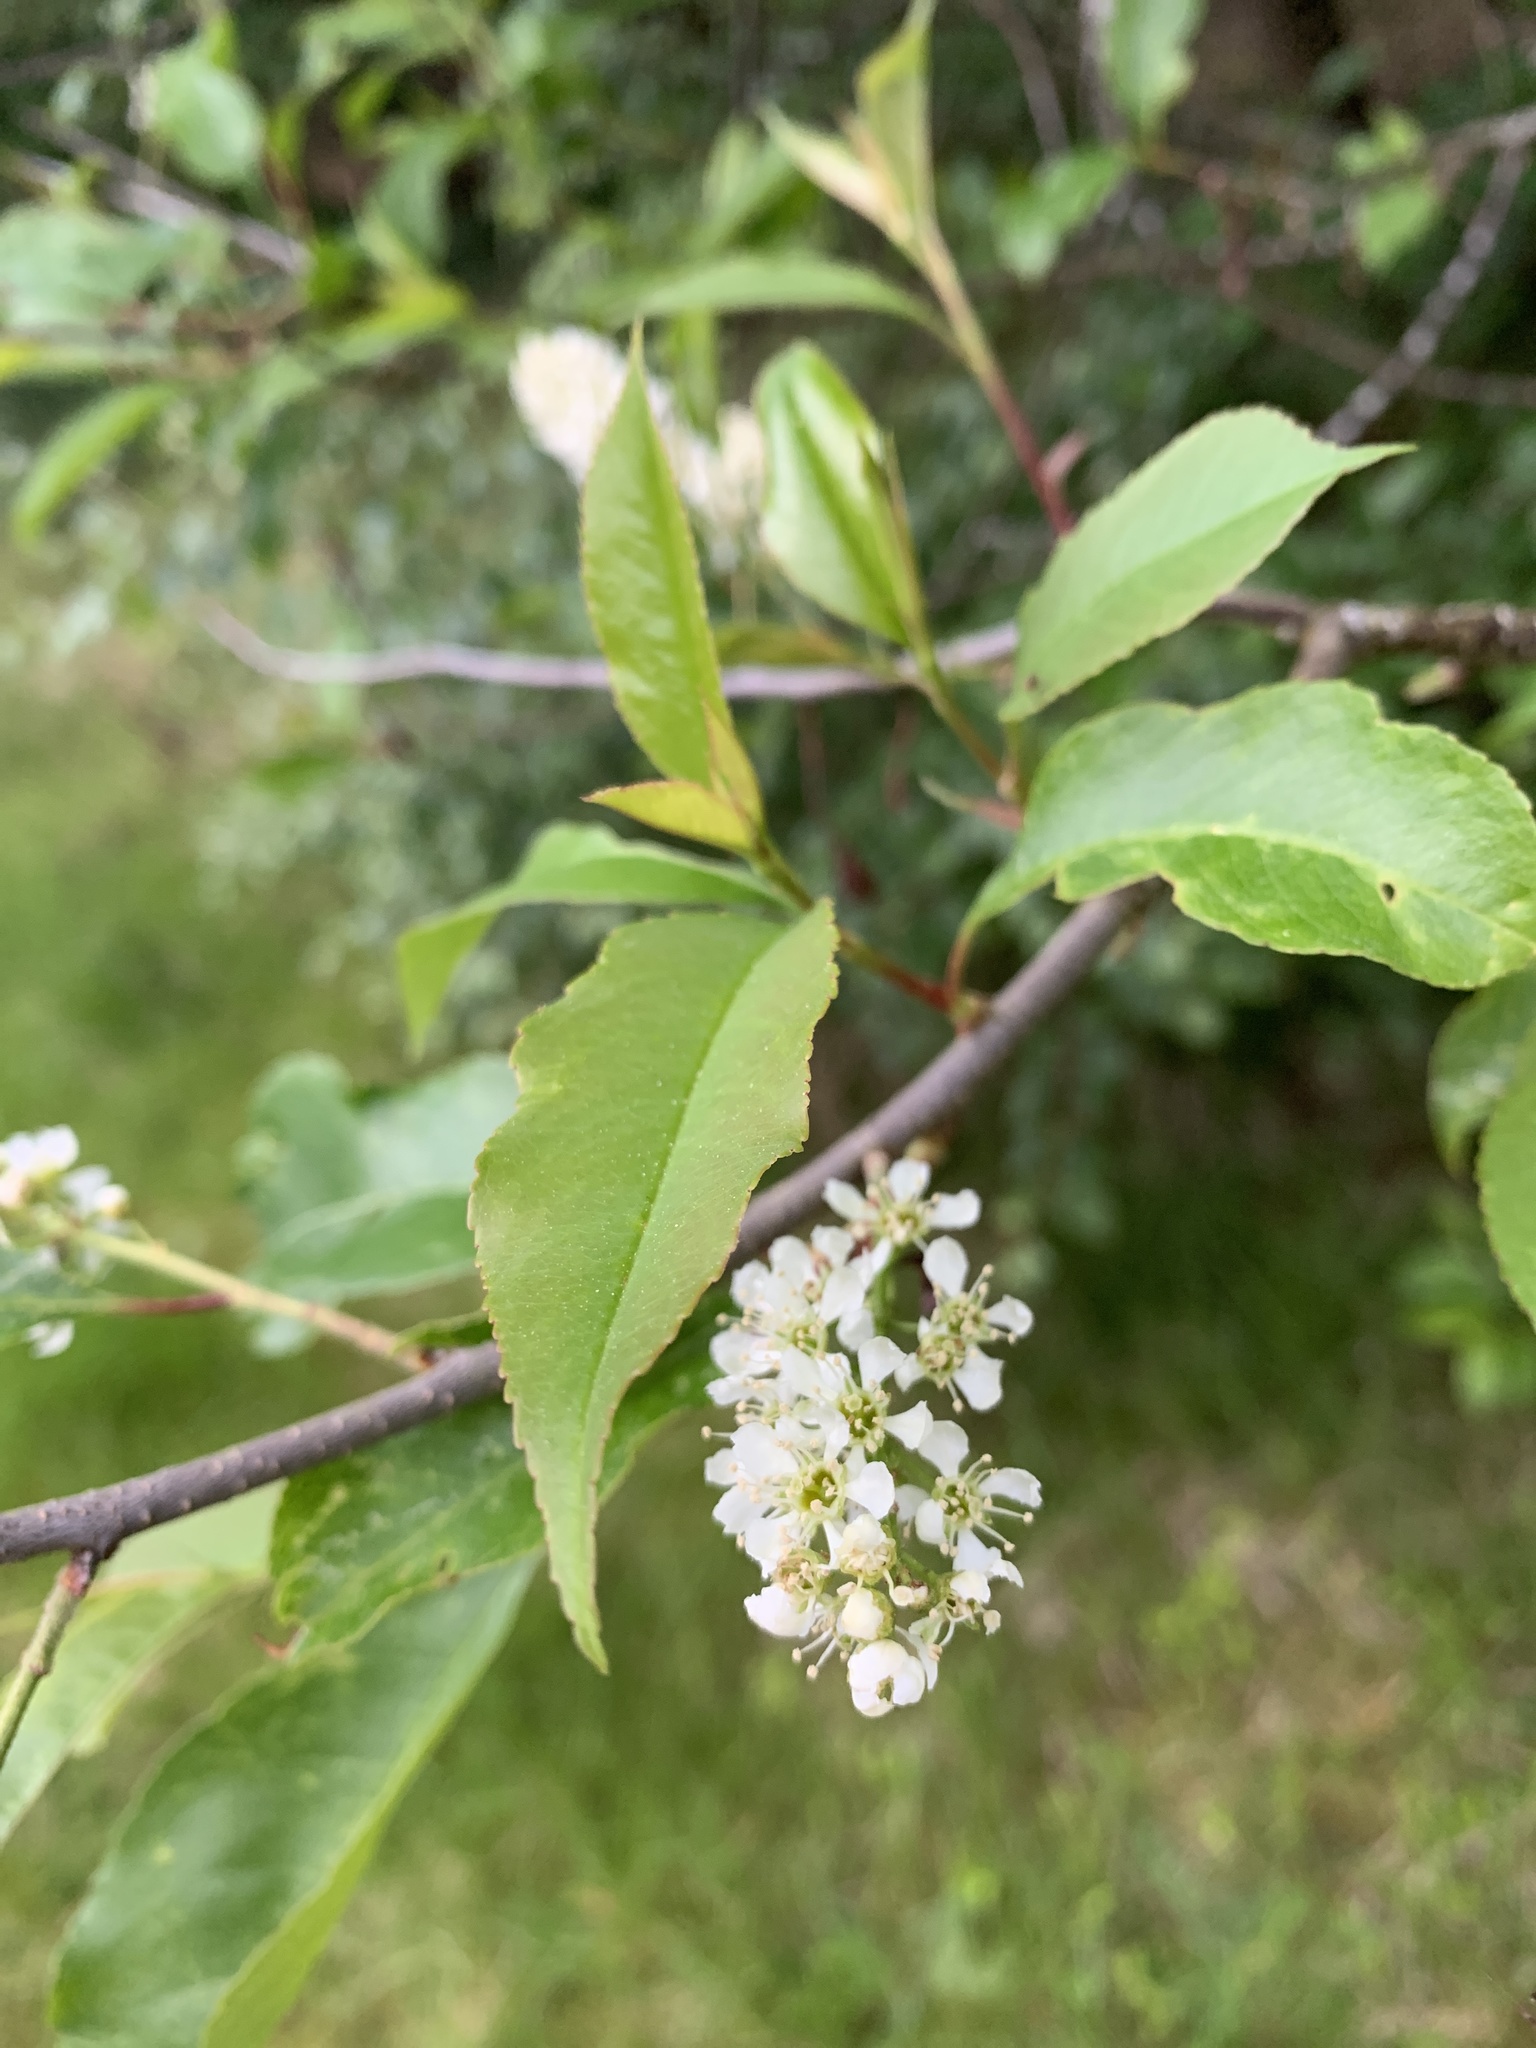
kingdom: Plantae
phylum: Tracheophyta
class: Magnoliopsida
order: Rosales
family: Rosaceae
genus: Prunus
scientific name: Prunus serotina
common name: Black cherry
